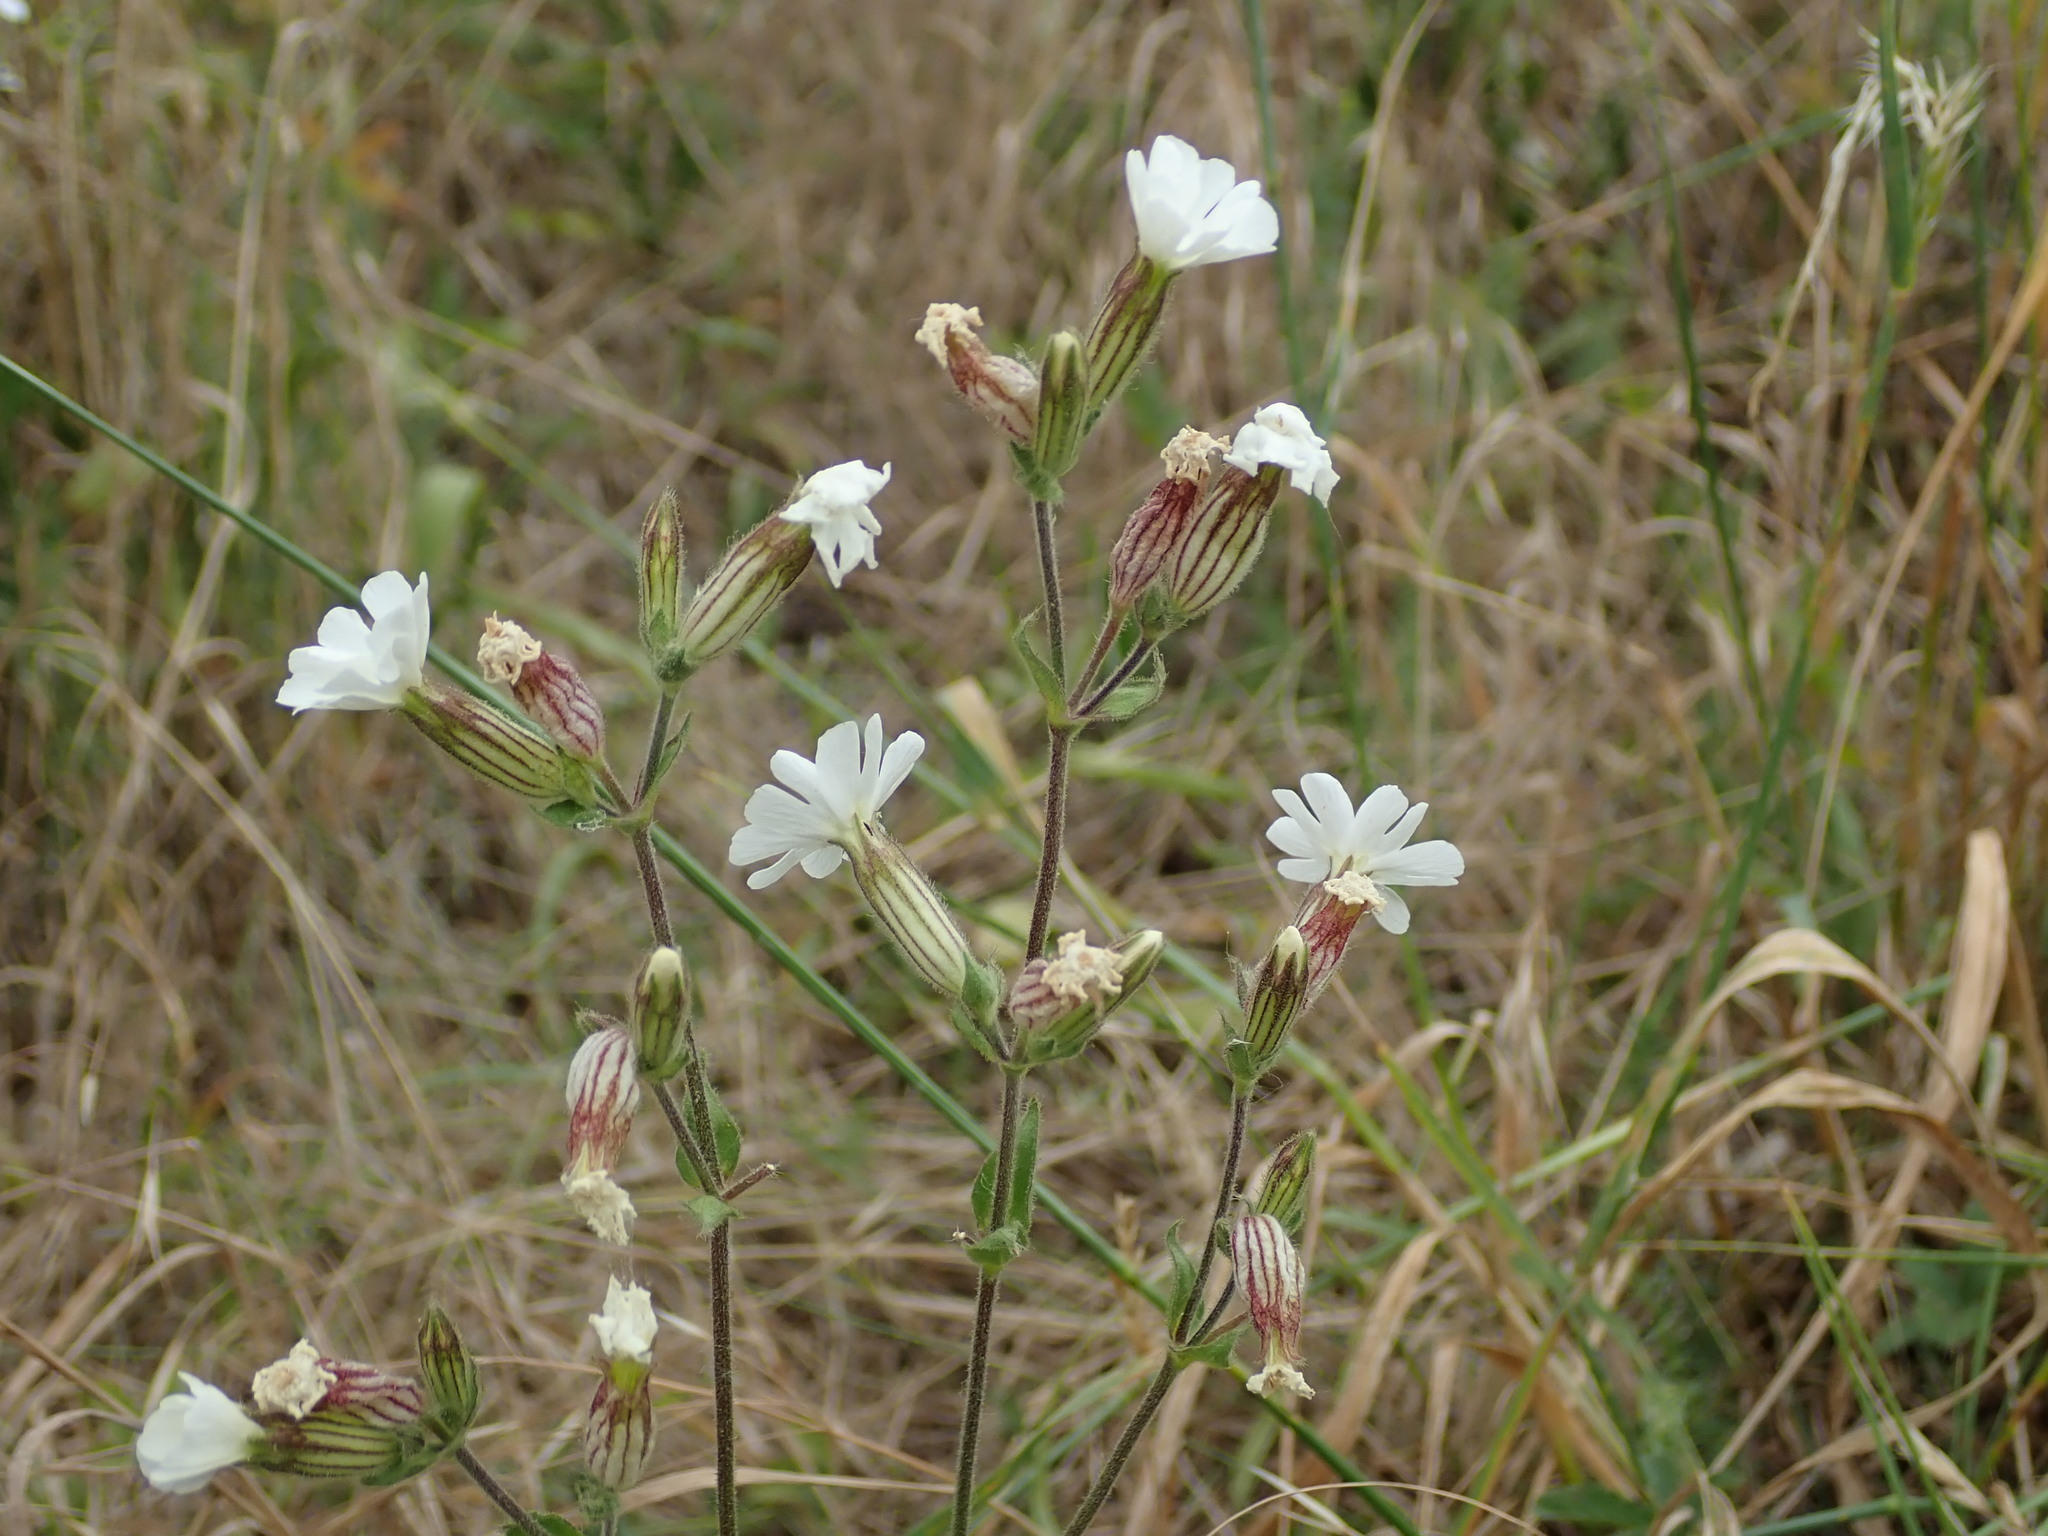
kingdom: Plantae
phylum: Tracheophyta
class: Magnoliopsida
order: Caryophyllales
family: Caryophyllaceae
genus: Silene
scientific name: Silene latifolia
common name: White campion
